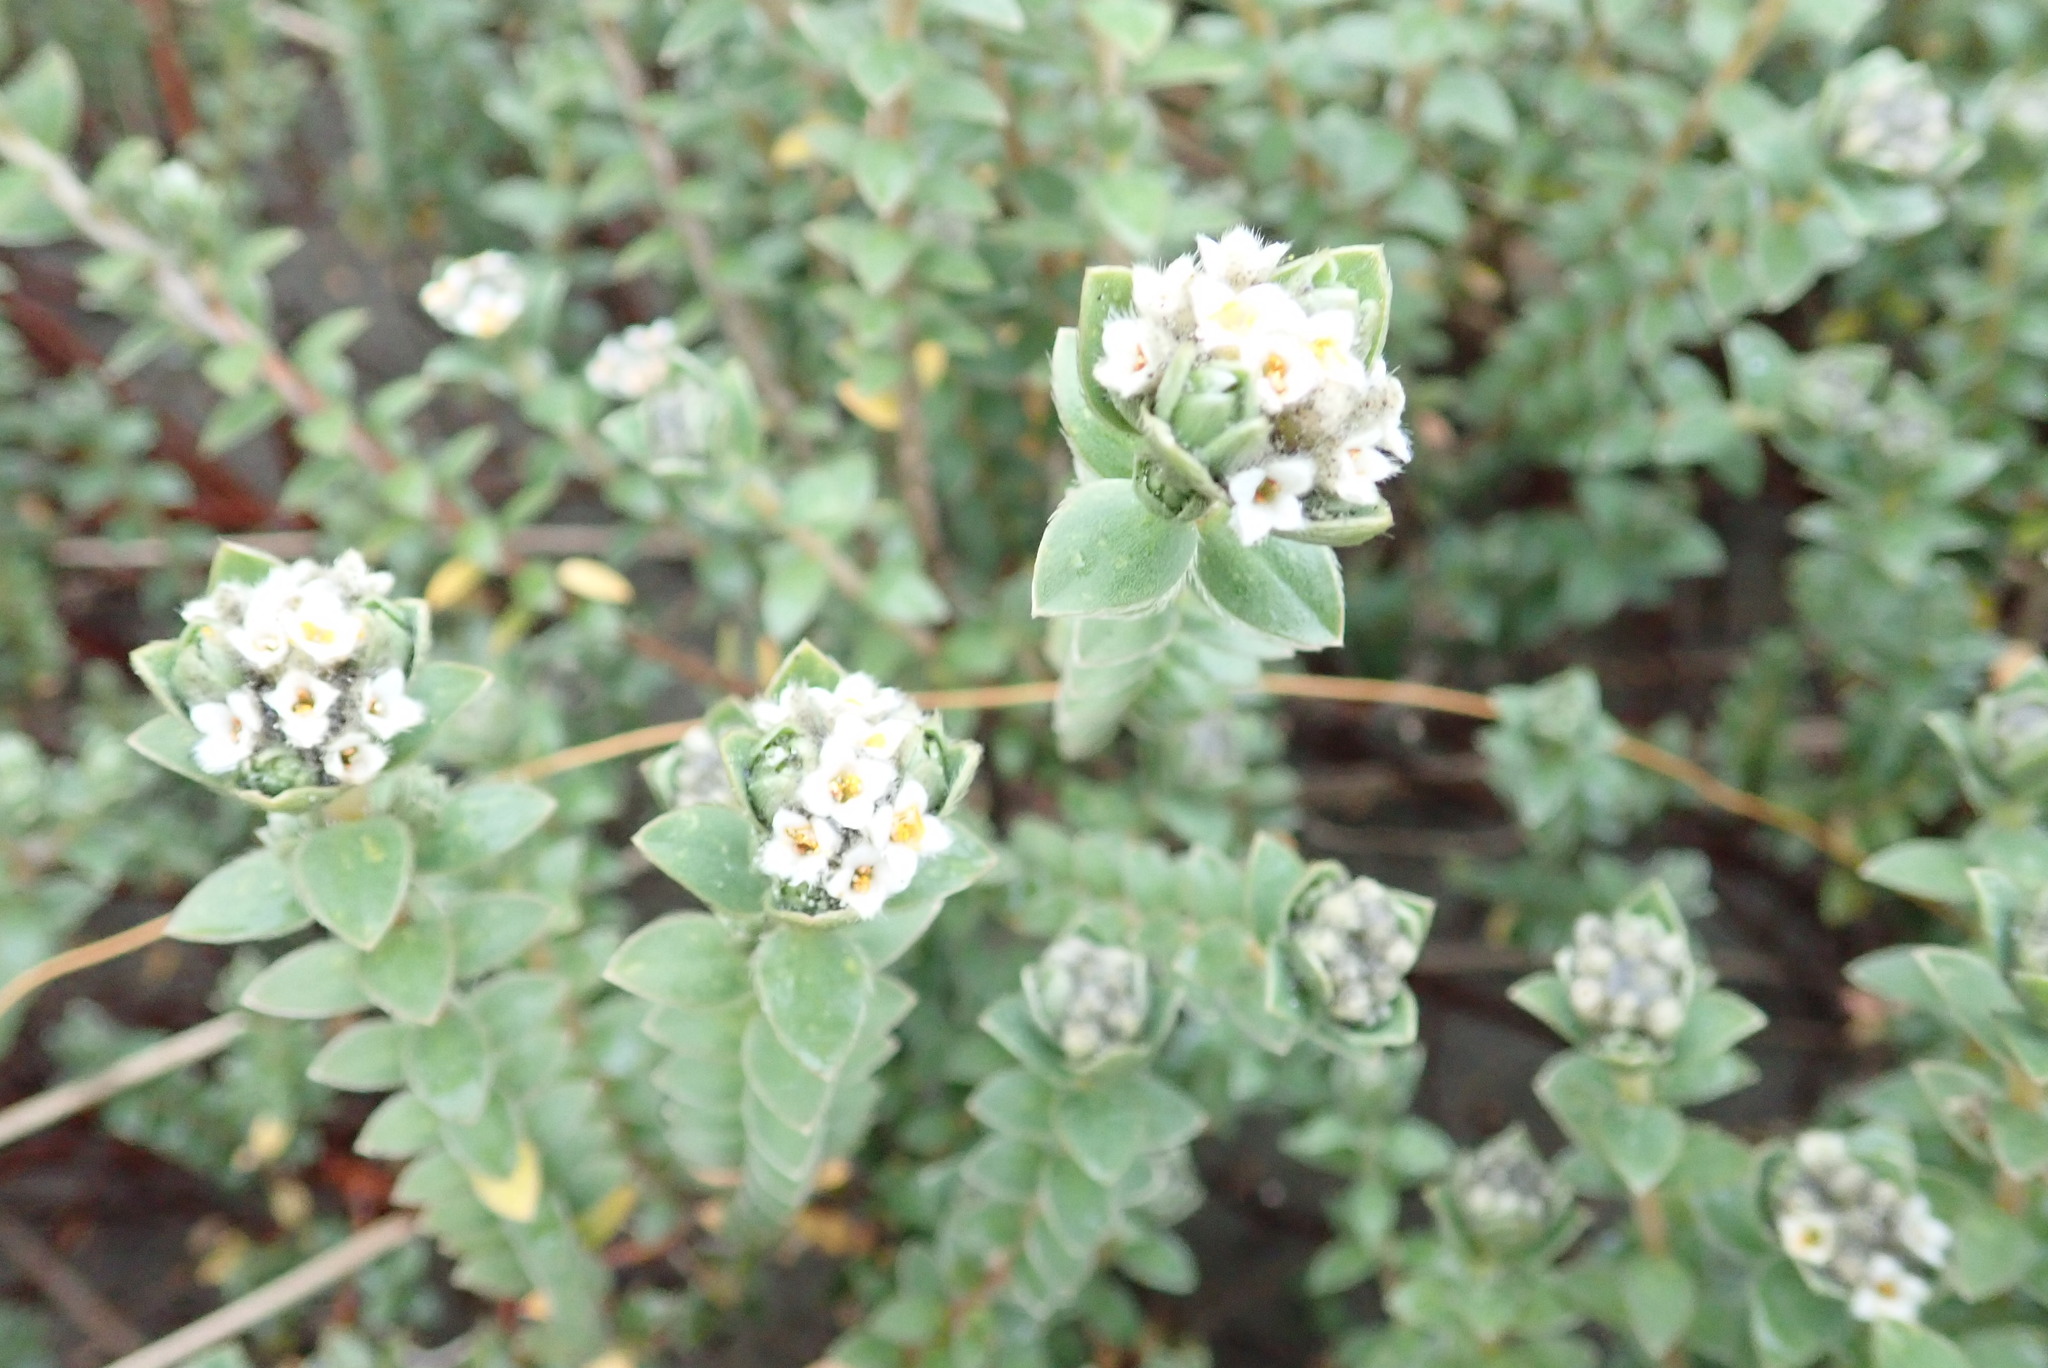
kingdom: Plantae
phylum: Tracheophyta
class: Magnoliopsida
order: Malvales
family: Thymelaeaceae
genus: Pimelea
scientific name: Pimelea villosa
